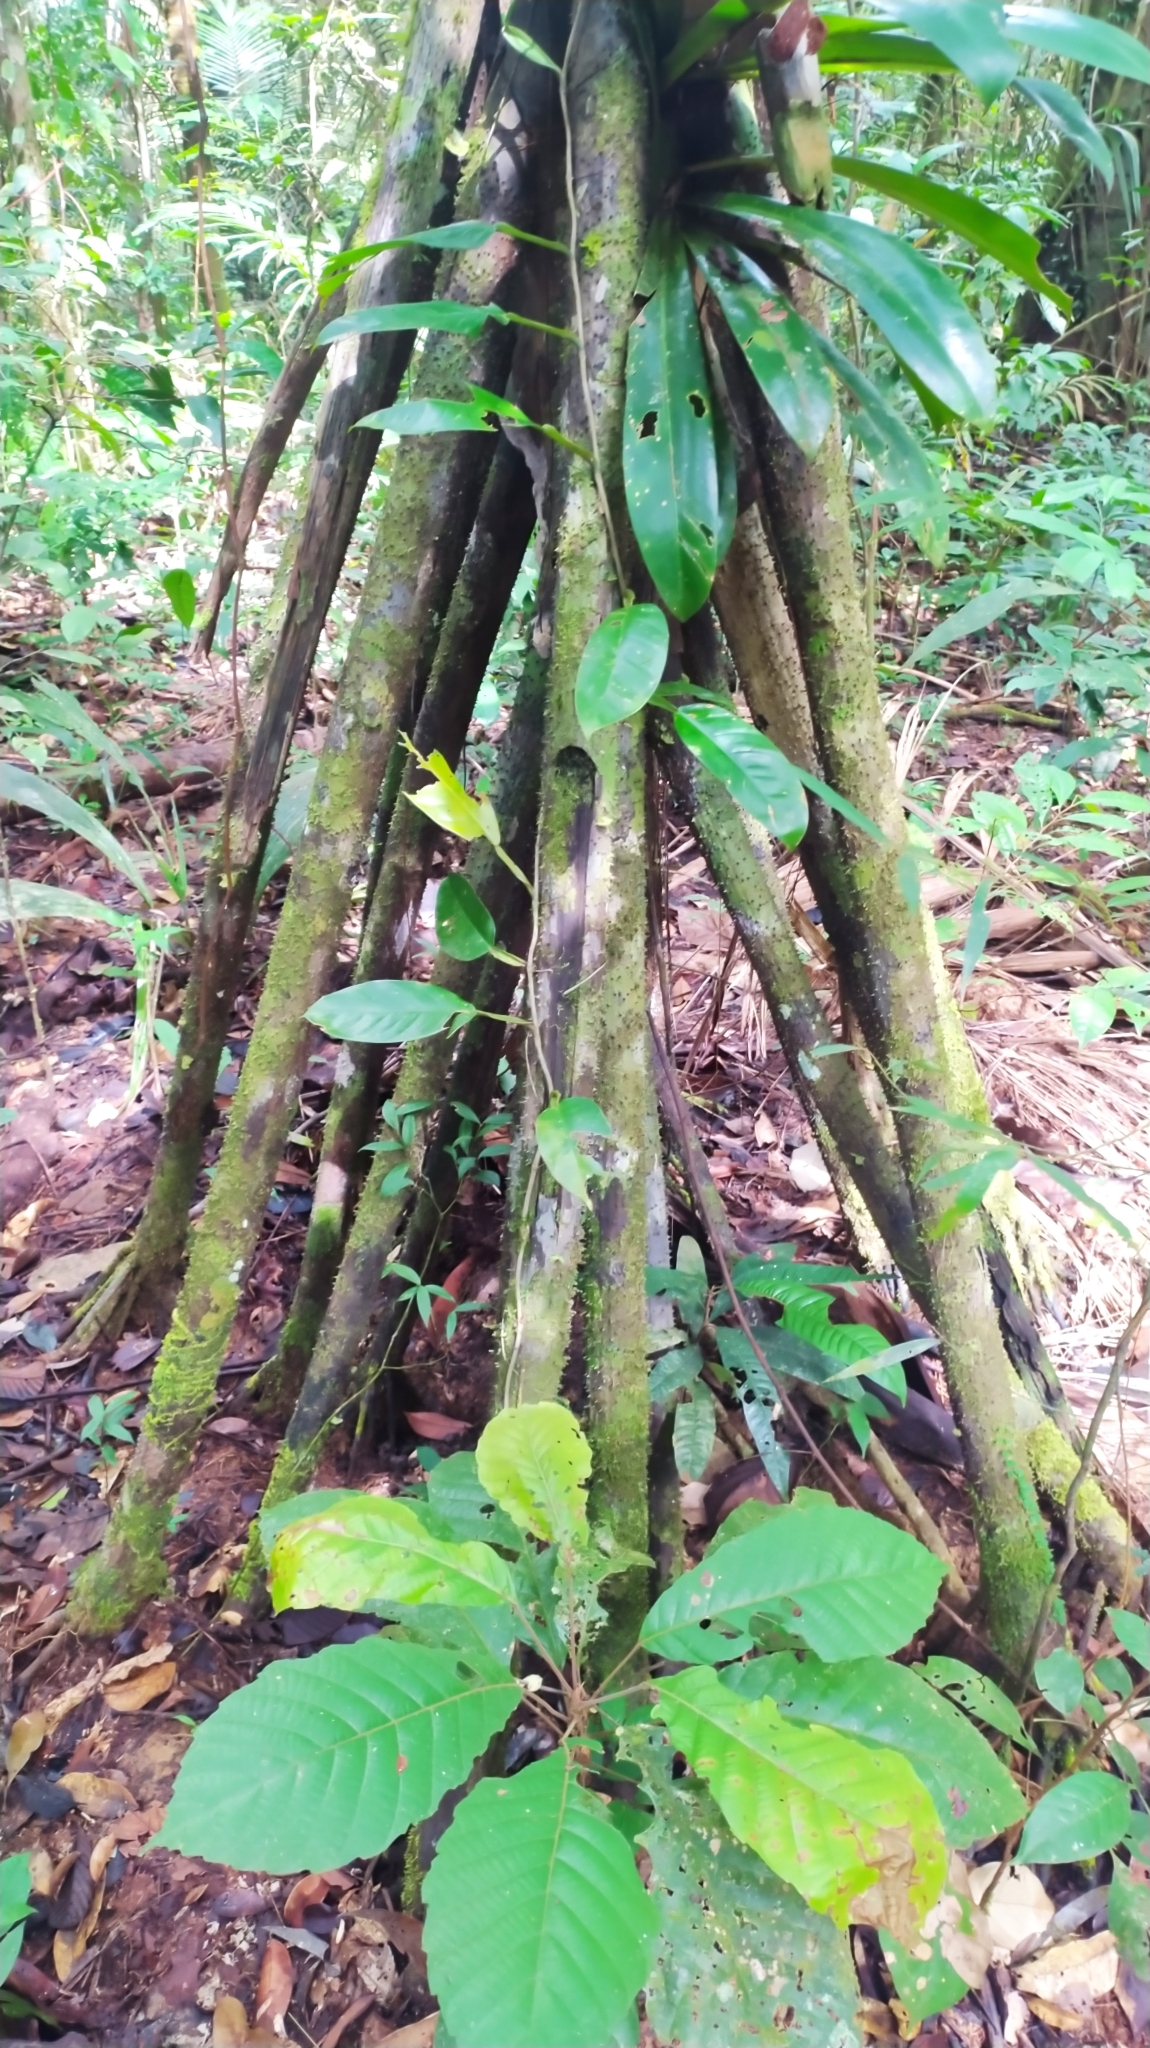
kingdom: Plantae
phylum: Tracheophyta
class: Liliopsida
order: Arecales
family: Arecaceae
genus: Socratea
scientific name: Socratea exorrhiza
